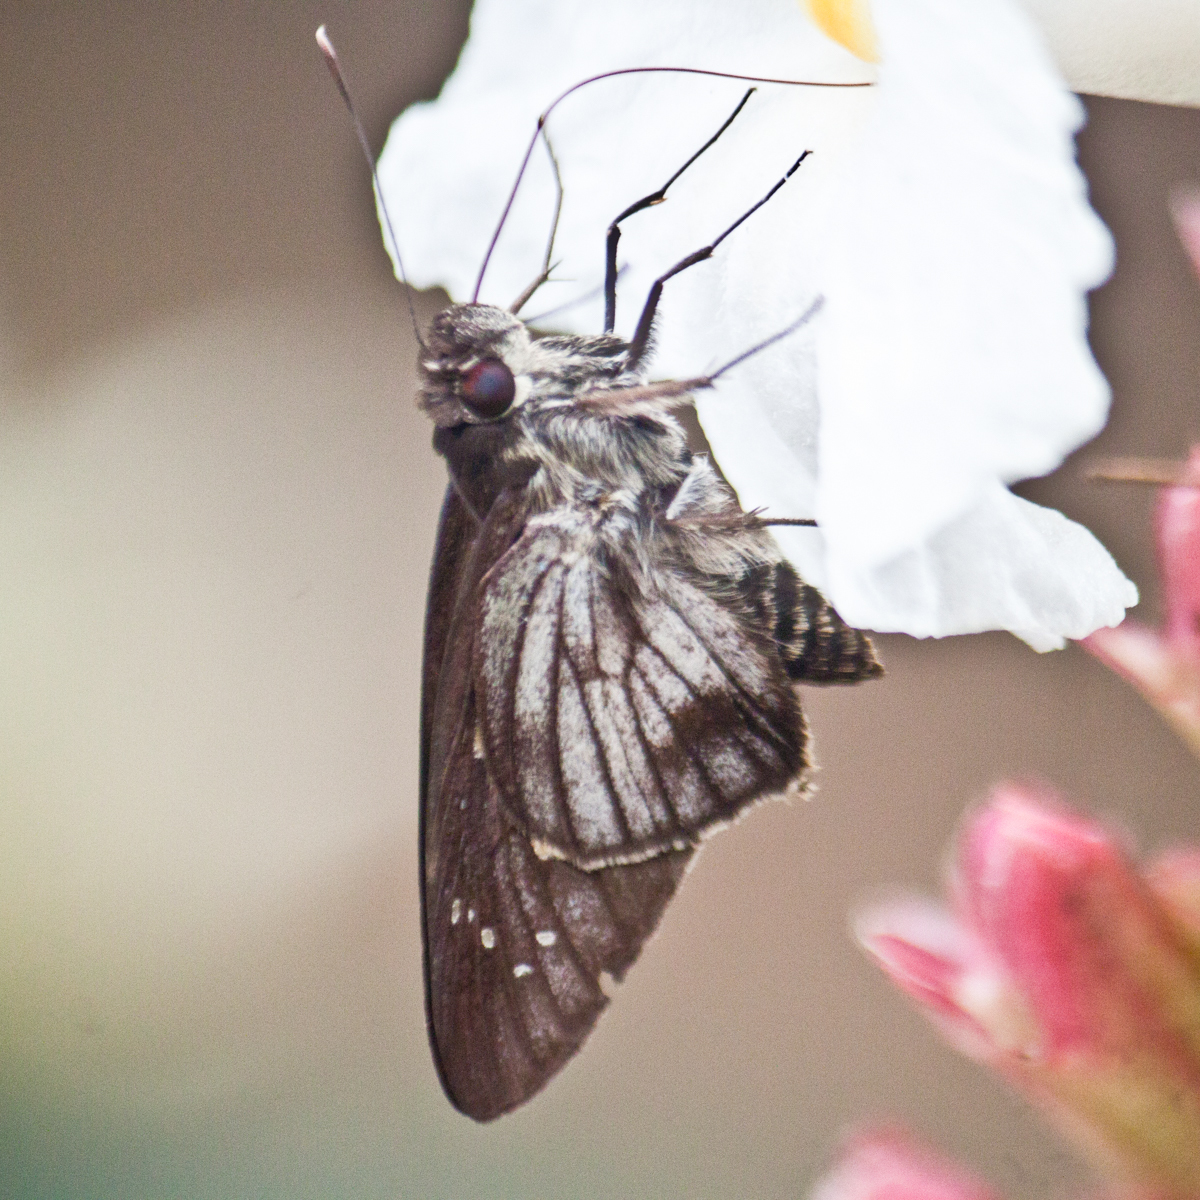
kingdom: Animalia
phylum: Arthropoda
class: Insecta
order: Lepidoptera
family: Hesperiidae
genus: Unkana
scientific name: Unkana ambasa
